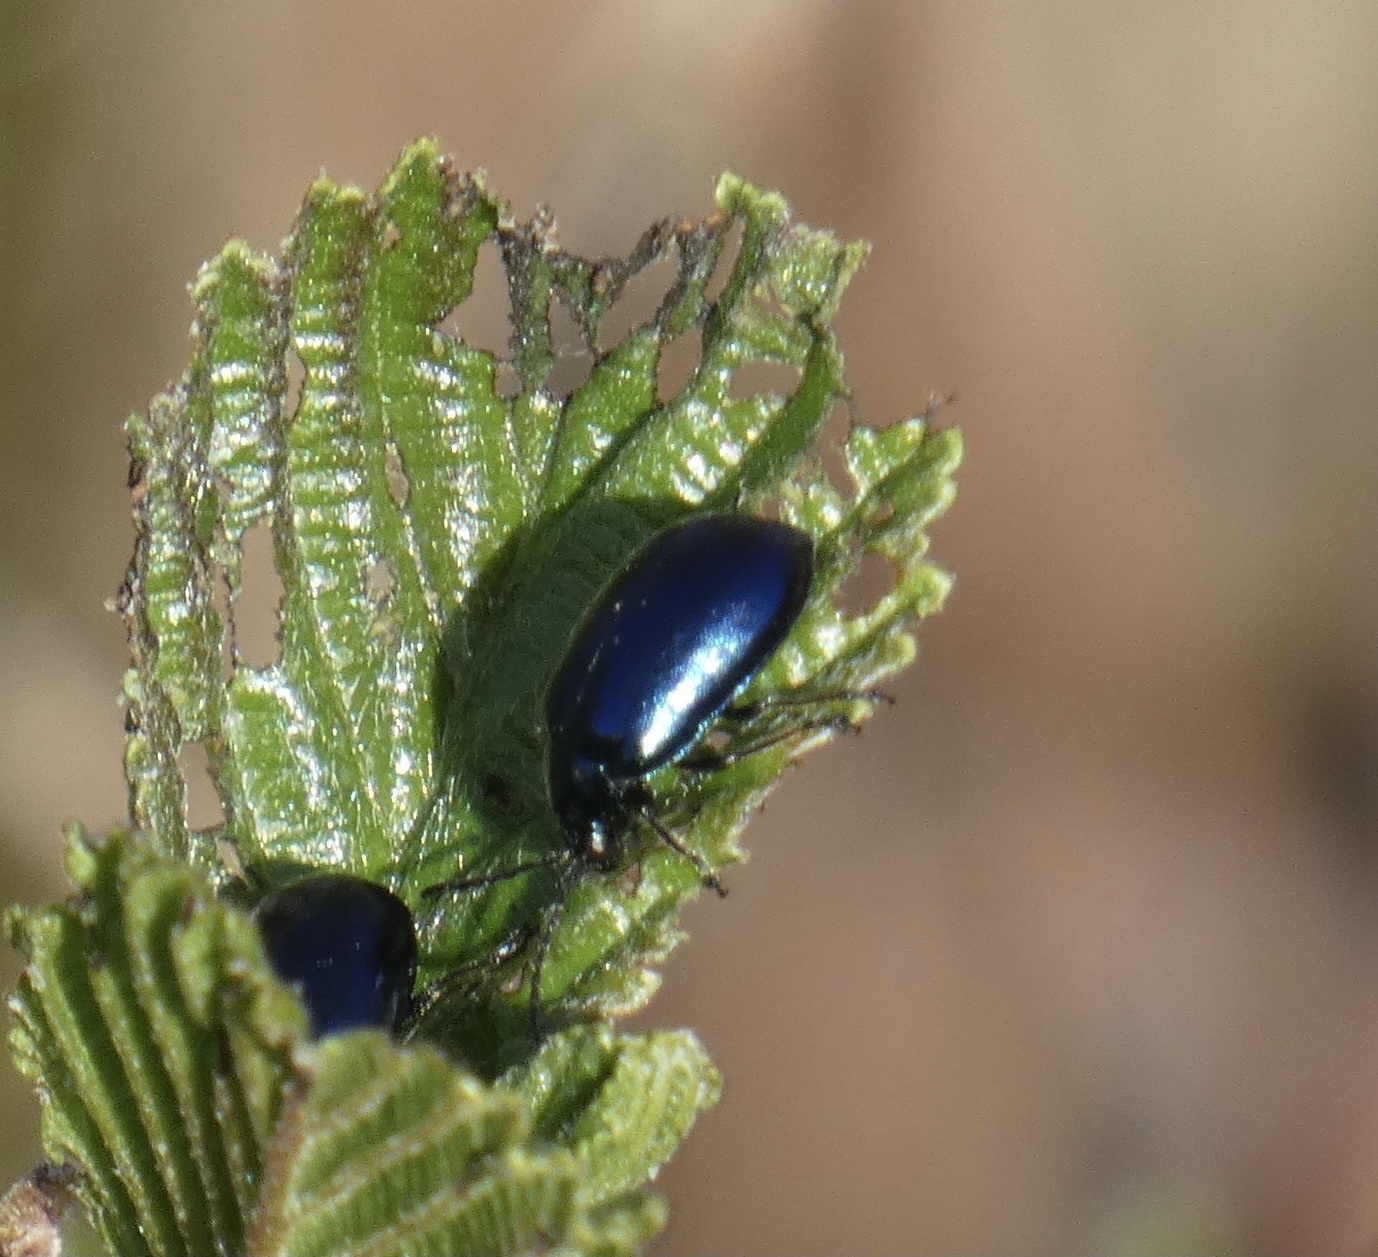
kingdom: Animalia
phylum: Arthropoda
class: Insecta
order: Coleoptera
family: Chrysomelidae
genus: Agelastica
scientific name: Agelastica alni
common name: Alder leaf beetle
